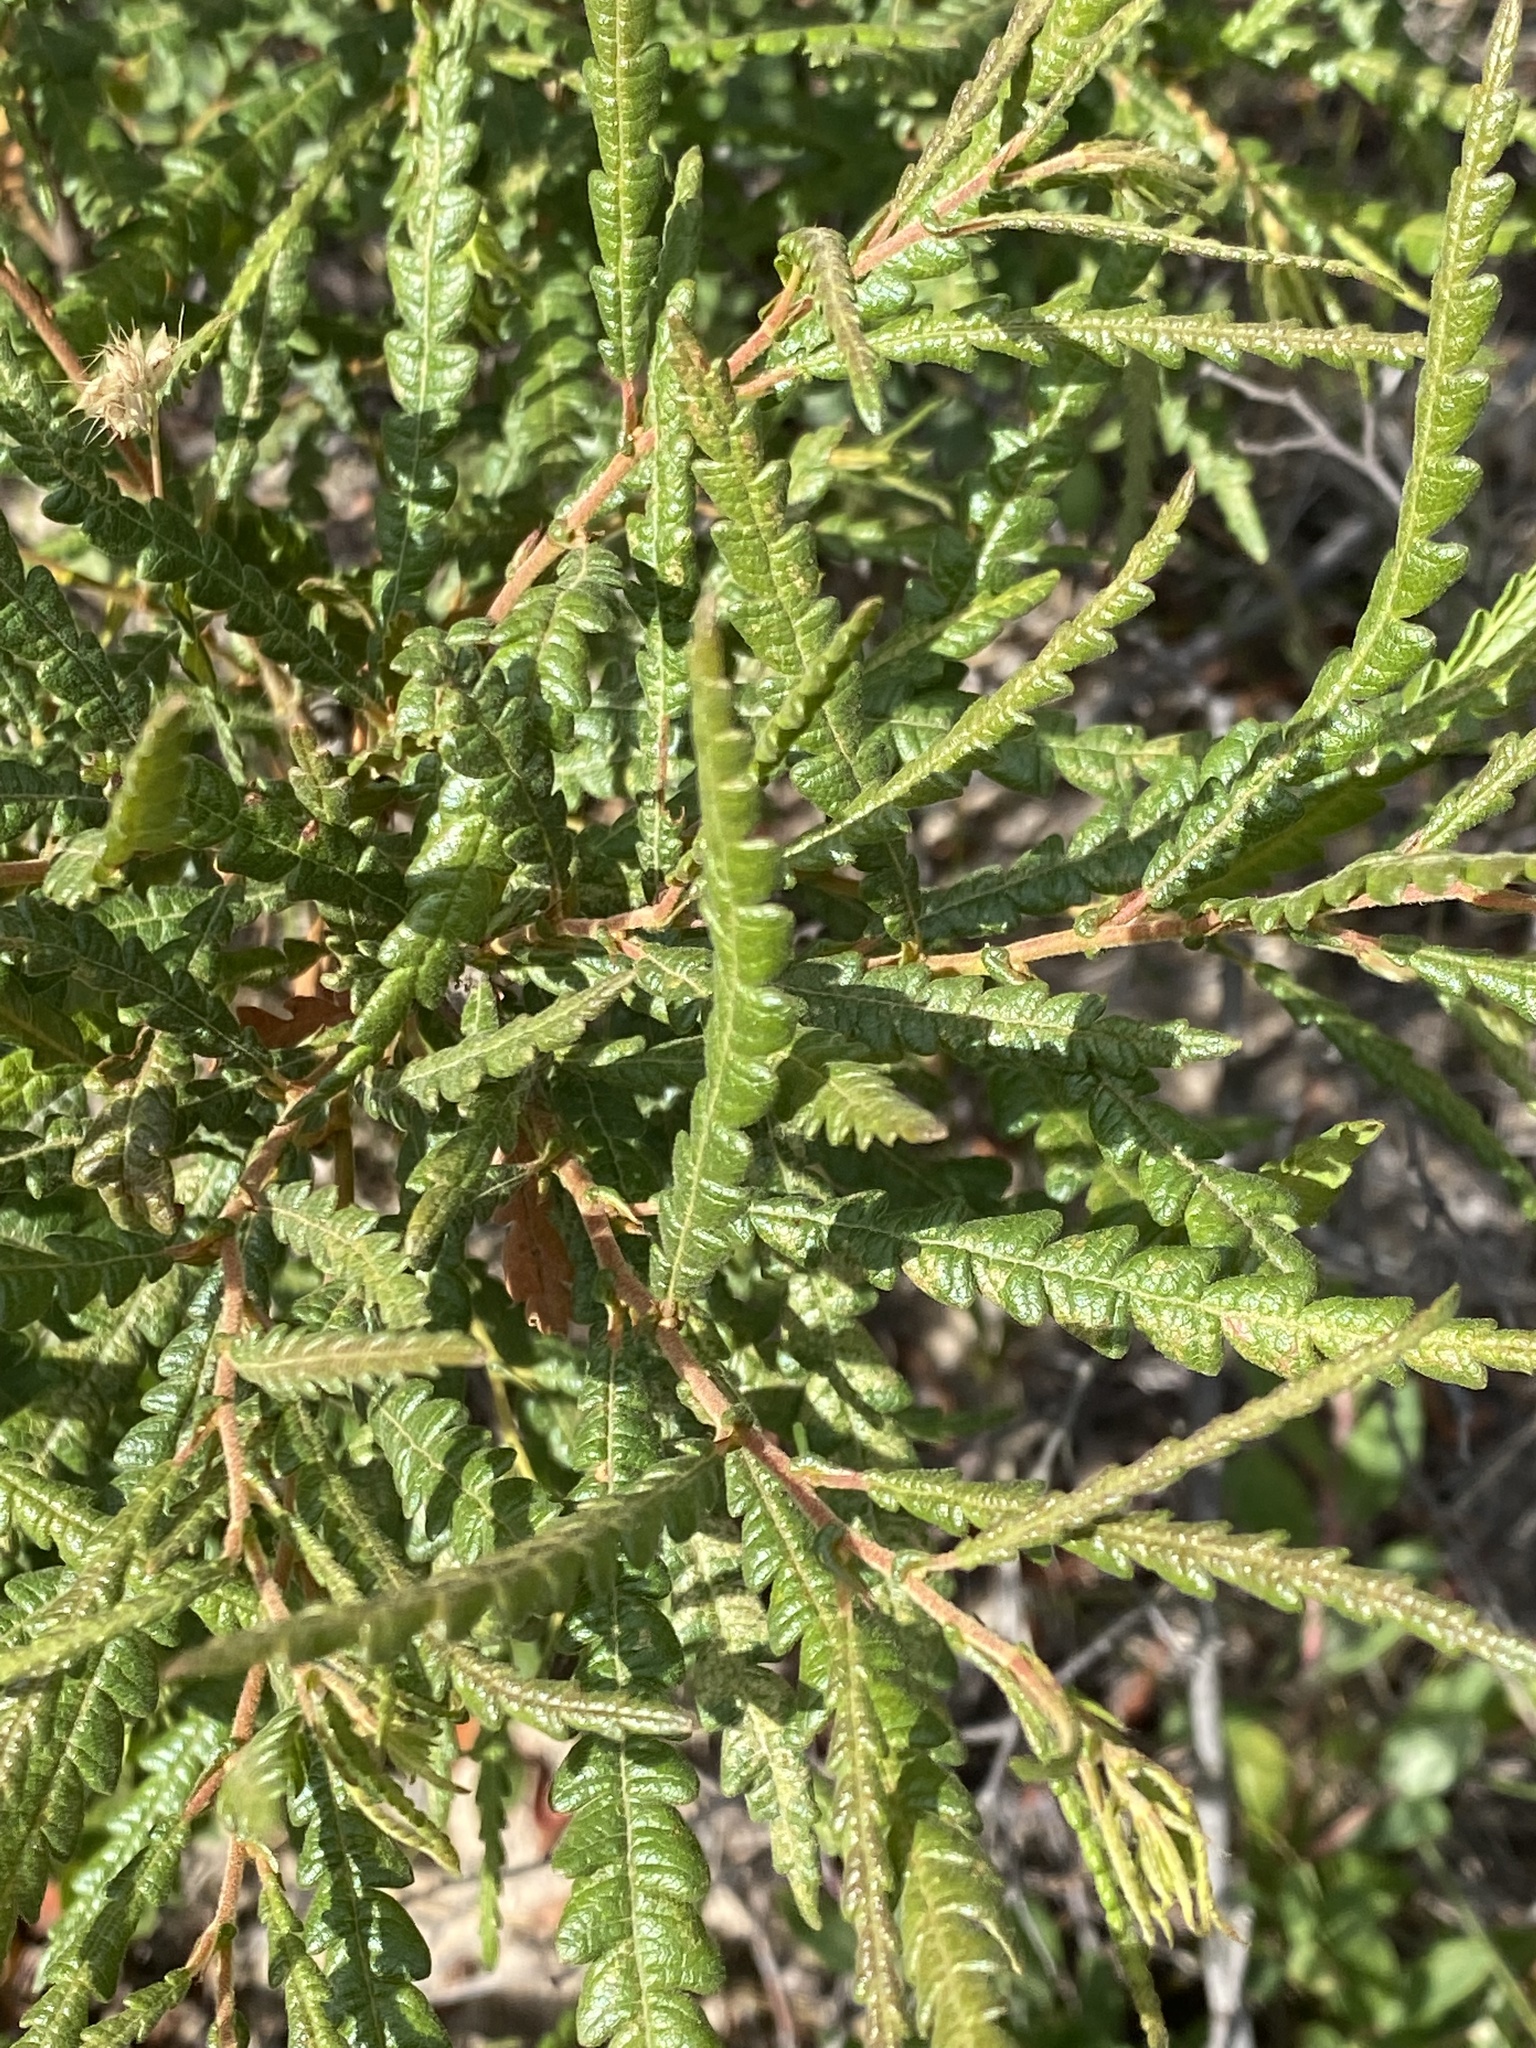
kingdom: Plantae
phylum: Tracheophyta
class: Magnoliopsida
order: Fagales
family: Myricaceae
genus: Comptonia
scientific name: Comptonia peregrina
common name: Sweet-fern
